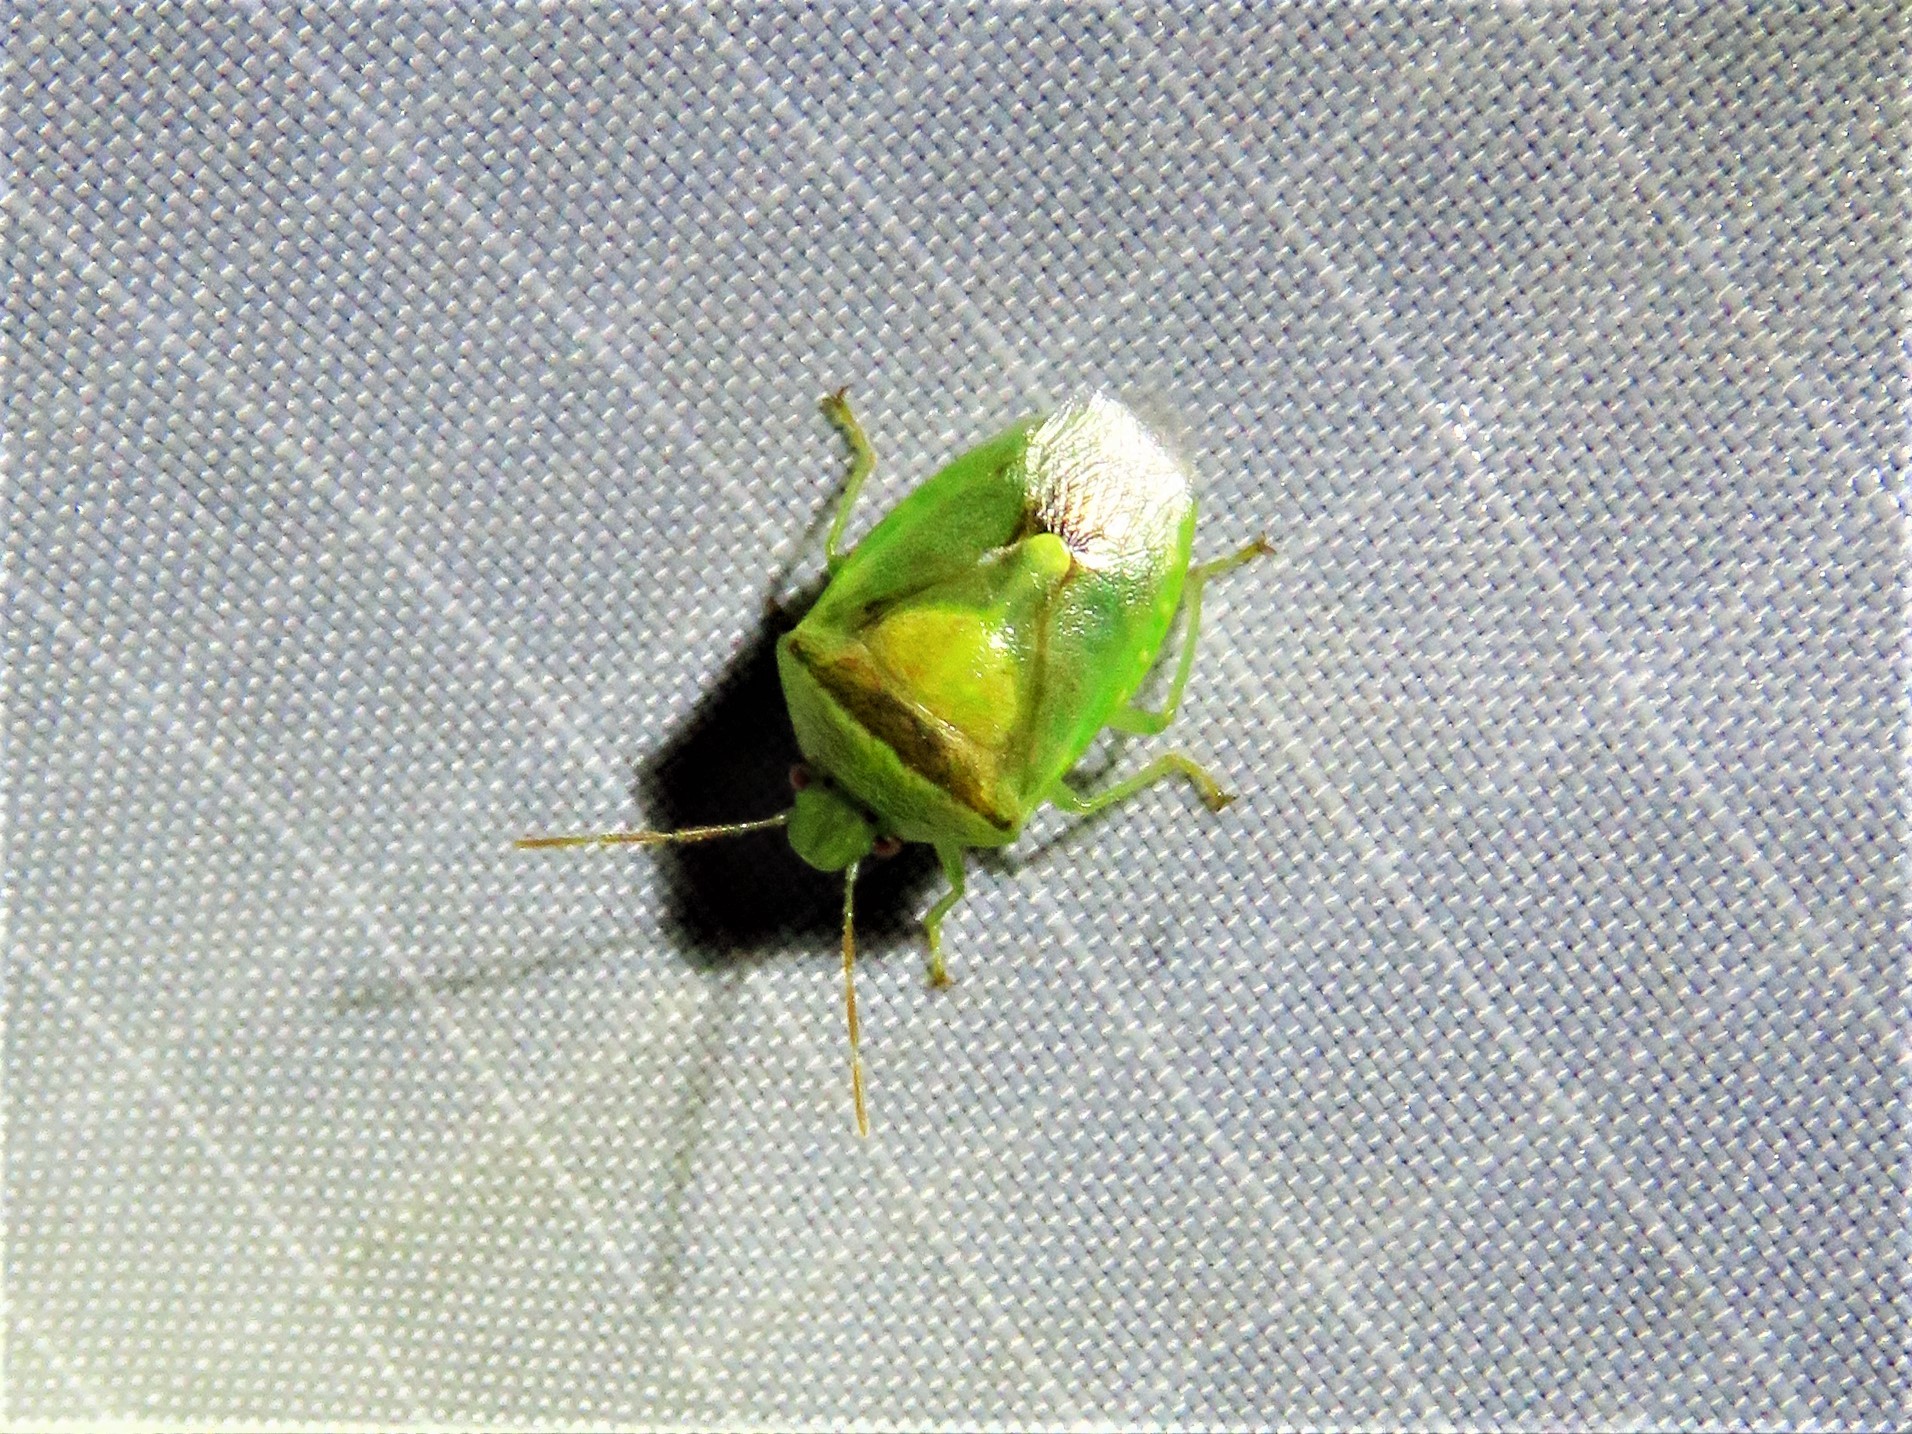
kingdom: Animalia
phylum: Arthropoda
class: Insecta
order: Hemiptera
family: Pentatomidae
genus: Banasa
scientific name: Banasa dimidiata
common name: Green burgundy stink bug
